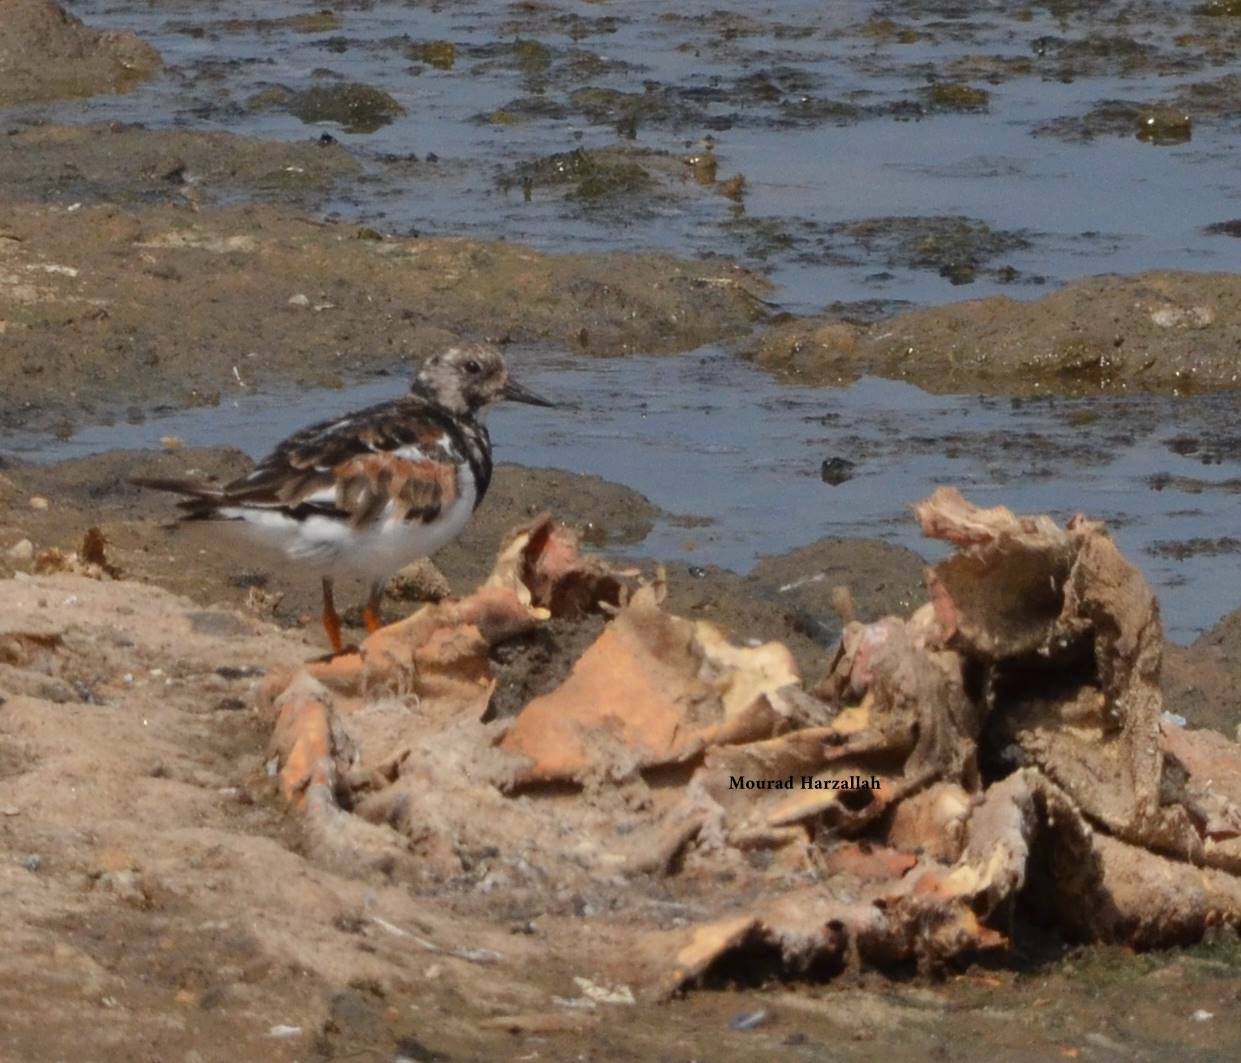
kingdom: Animalia
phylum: Chordata
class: Aves
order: Charadriiformes
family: Scolopacidae
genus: Arenaria
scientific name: Arenaria interpres
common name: Ruddy turnstone
